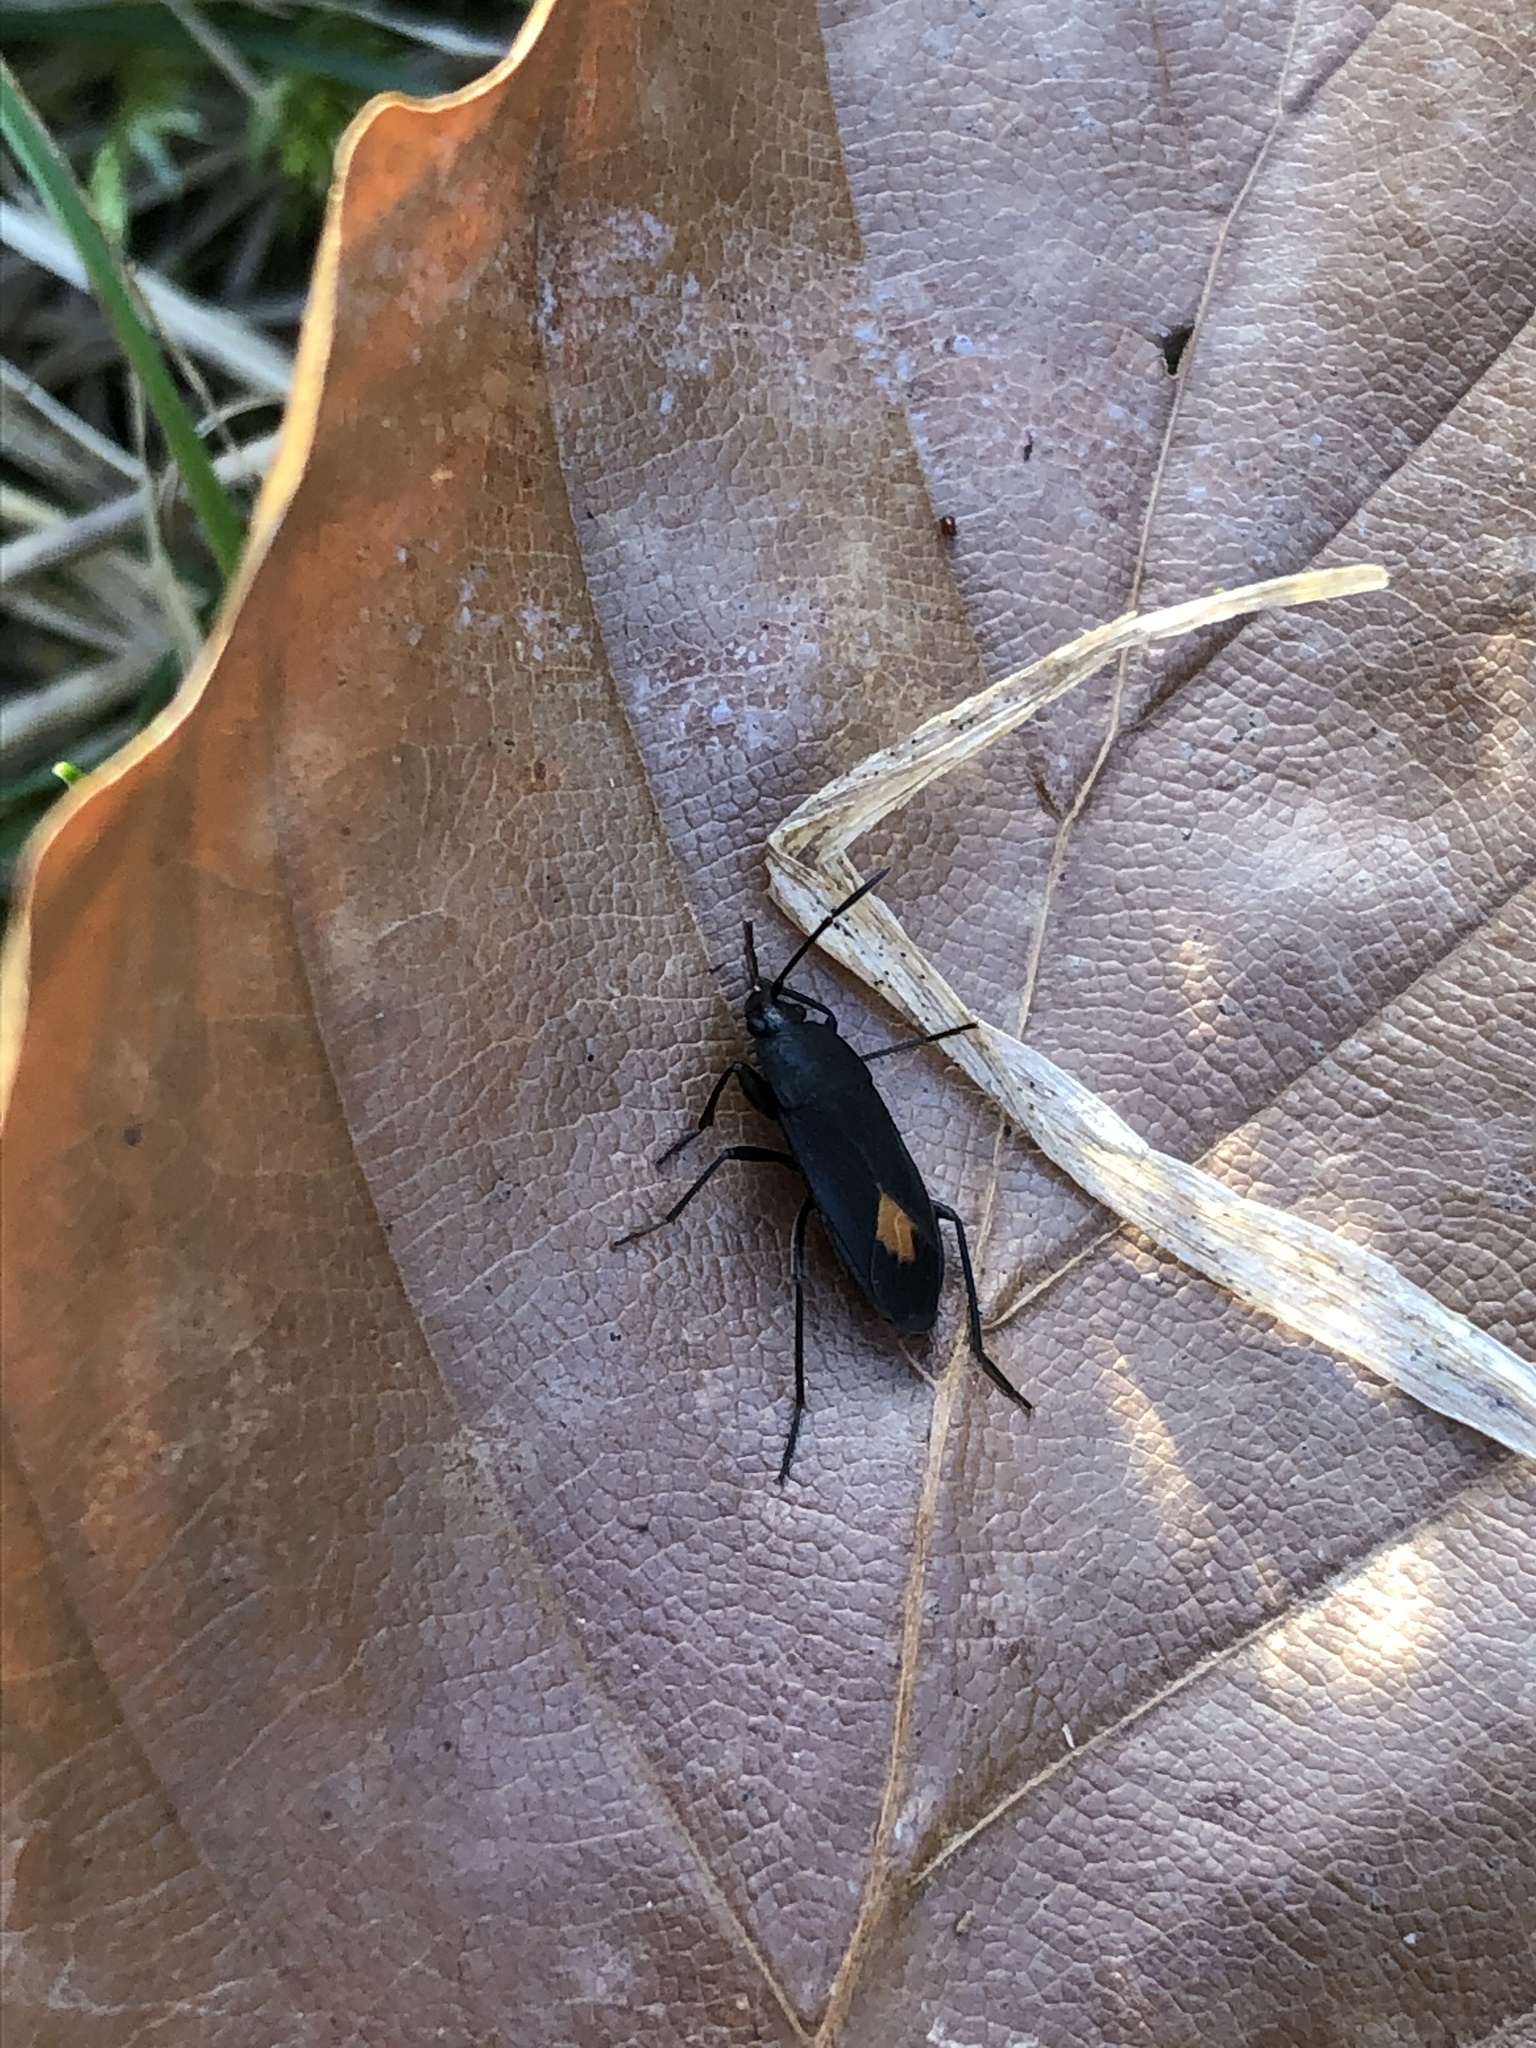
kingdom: Animalia
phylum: Arthropoda
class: Insecta
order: Hemiptera
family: Rhyparochromidae
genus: Aphanus
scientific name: Aphanus rolandri
